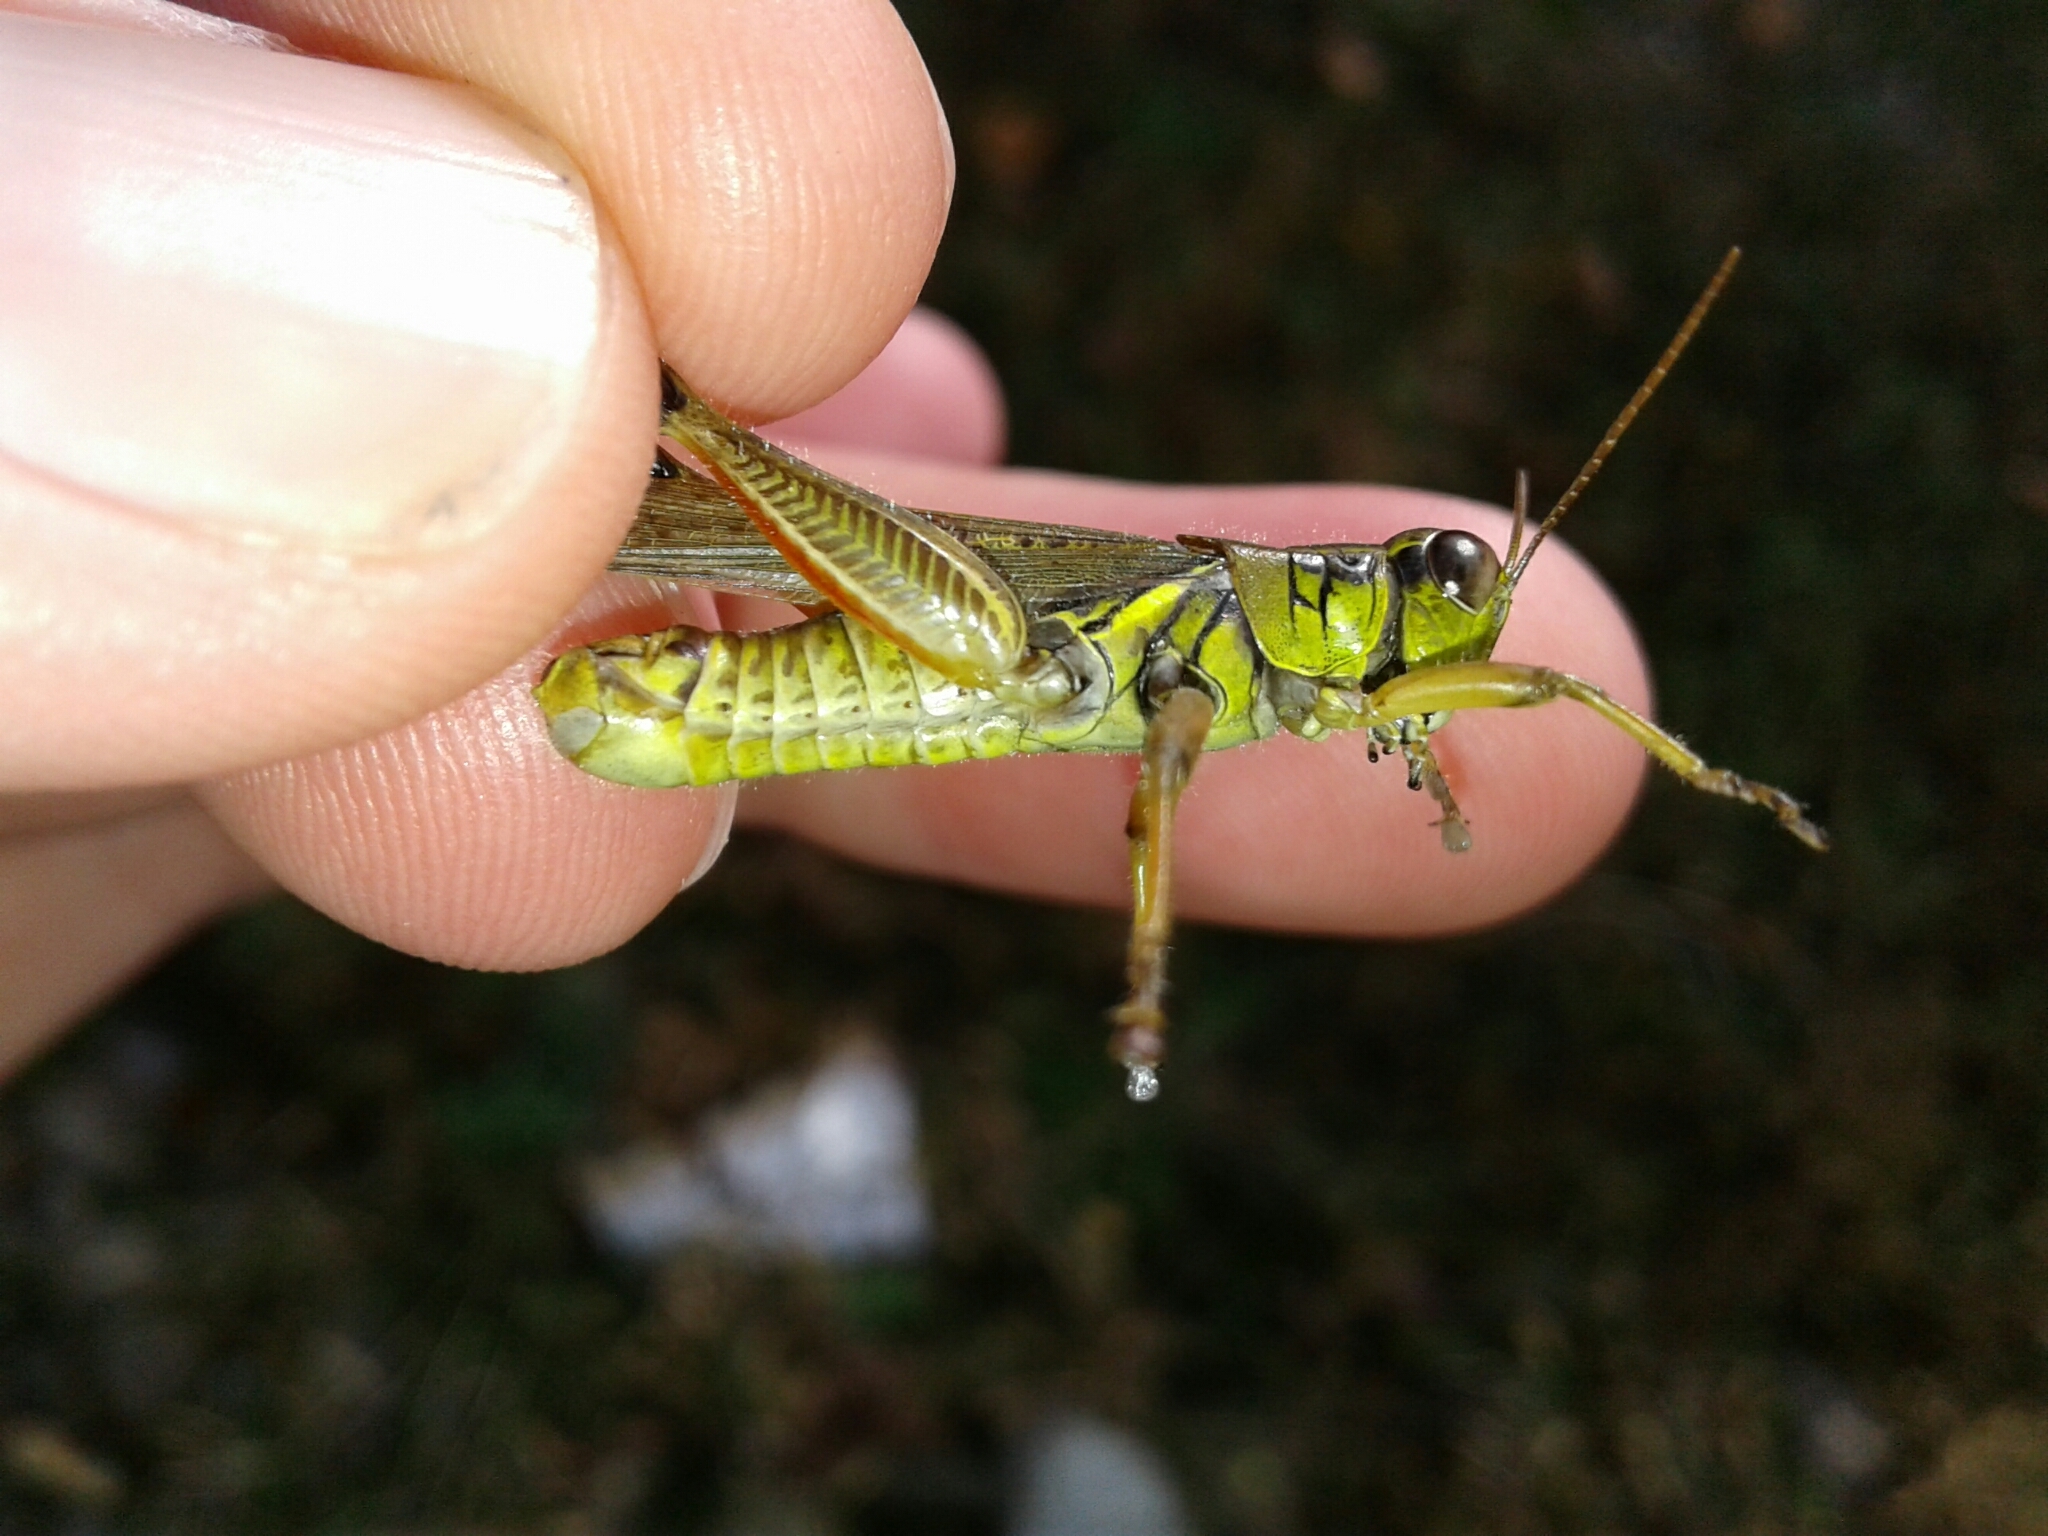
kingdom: Animalia
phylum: Arthropoda
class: Insecta
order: Orthoptera
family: Acrididae
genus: Melanoplus
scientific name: Melanoplus femurrubrum
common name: Red-legged grasshopper
